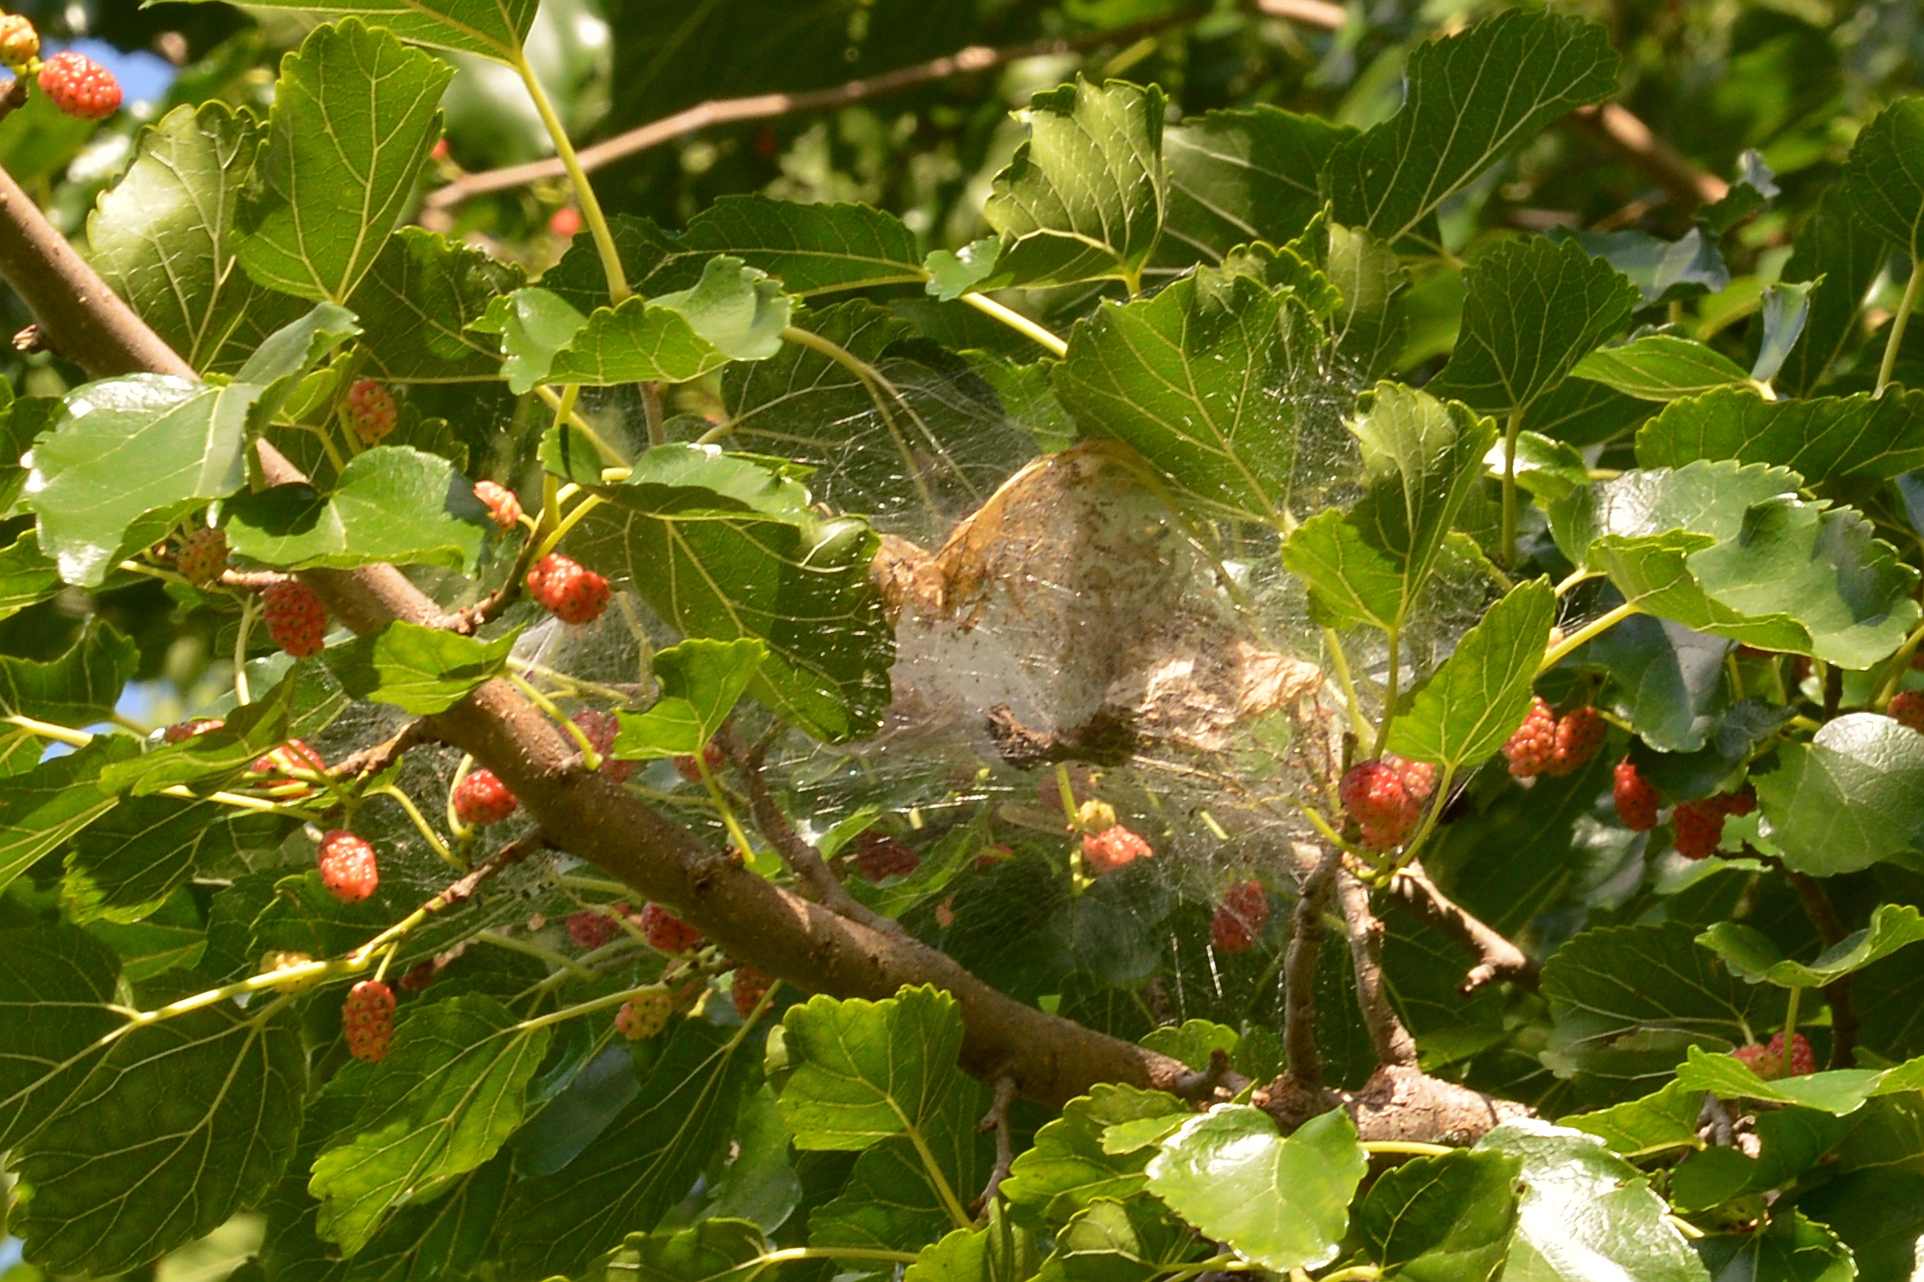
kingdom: Animalia
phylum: Arthropoda
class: Insecta
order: Lepidoptera
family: Erebidae
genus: Hyphantria
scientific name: Hyphantria cunea
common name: American white moth
